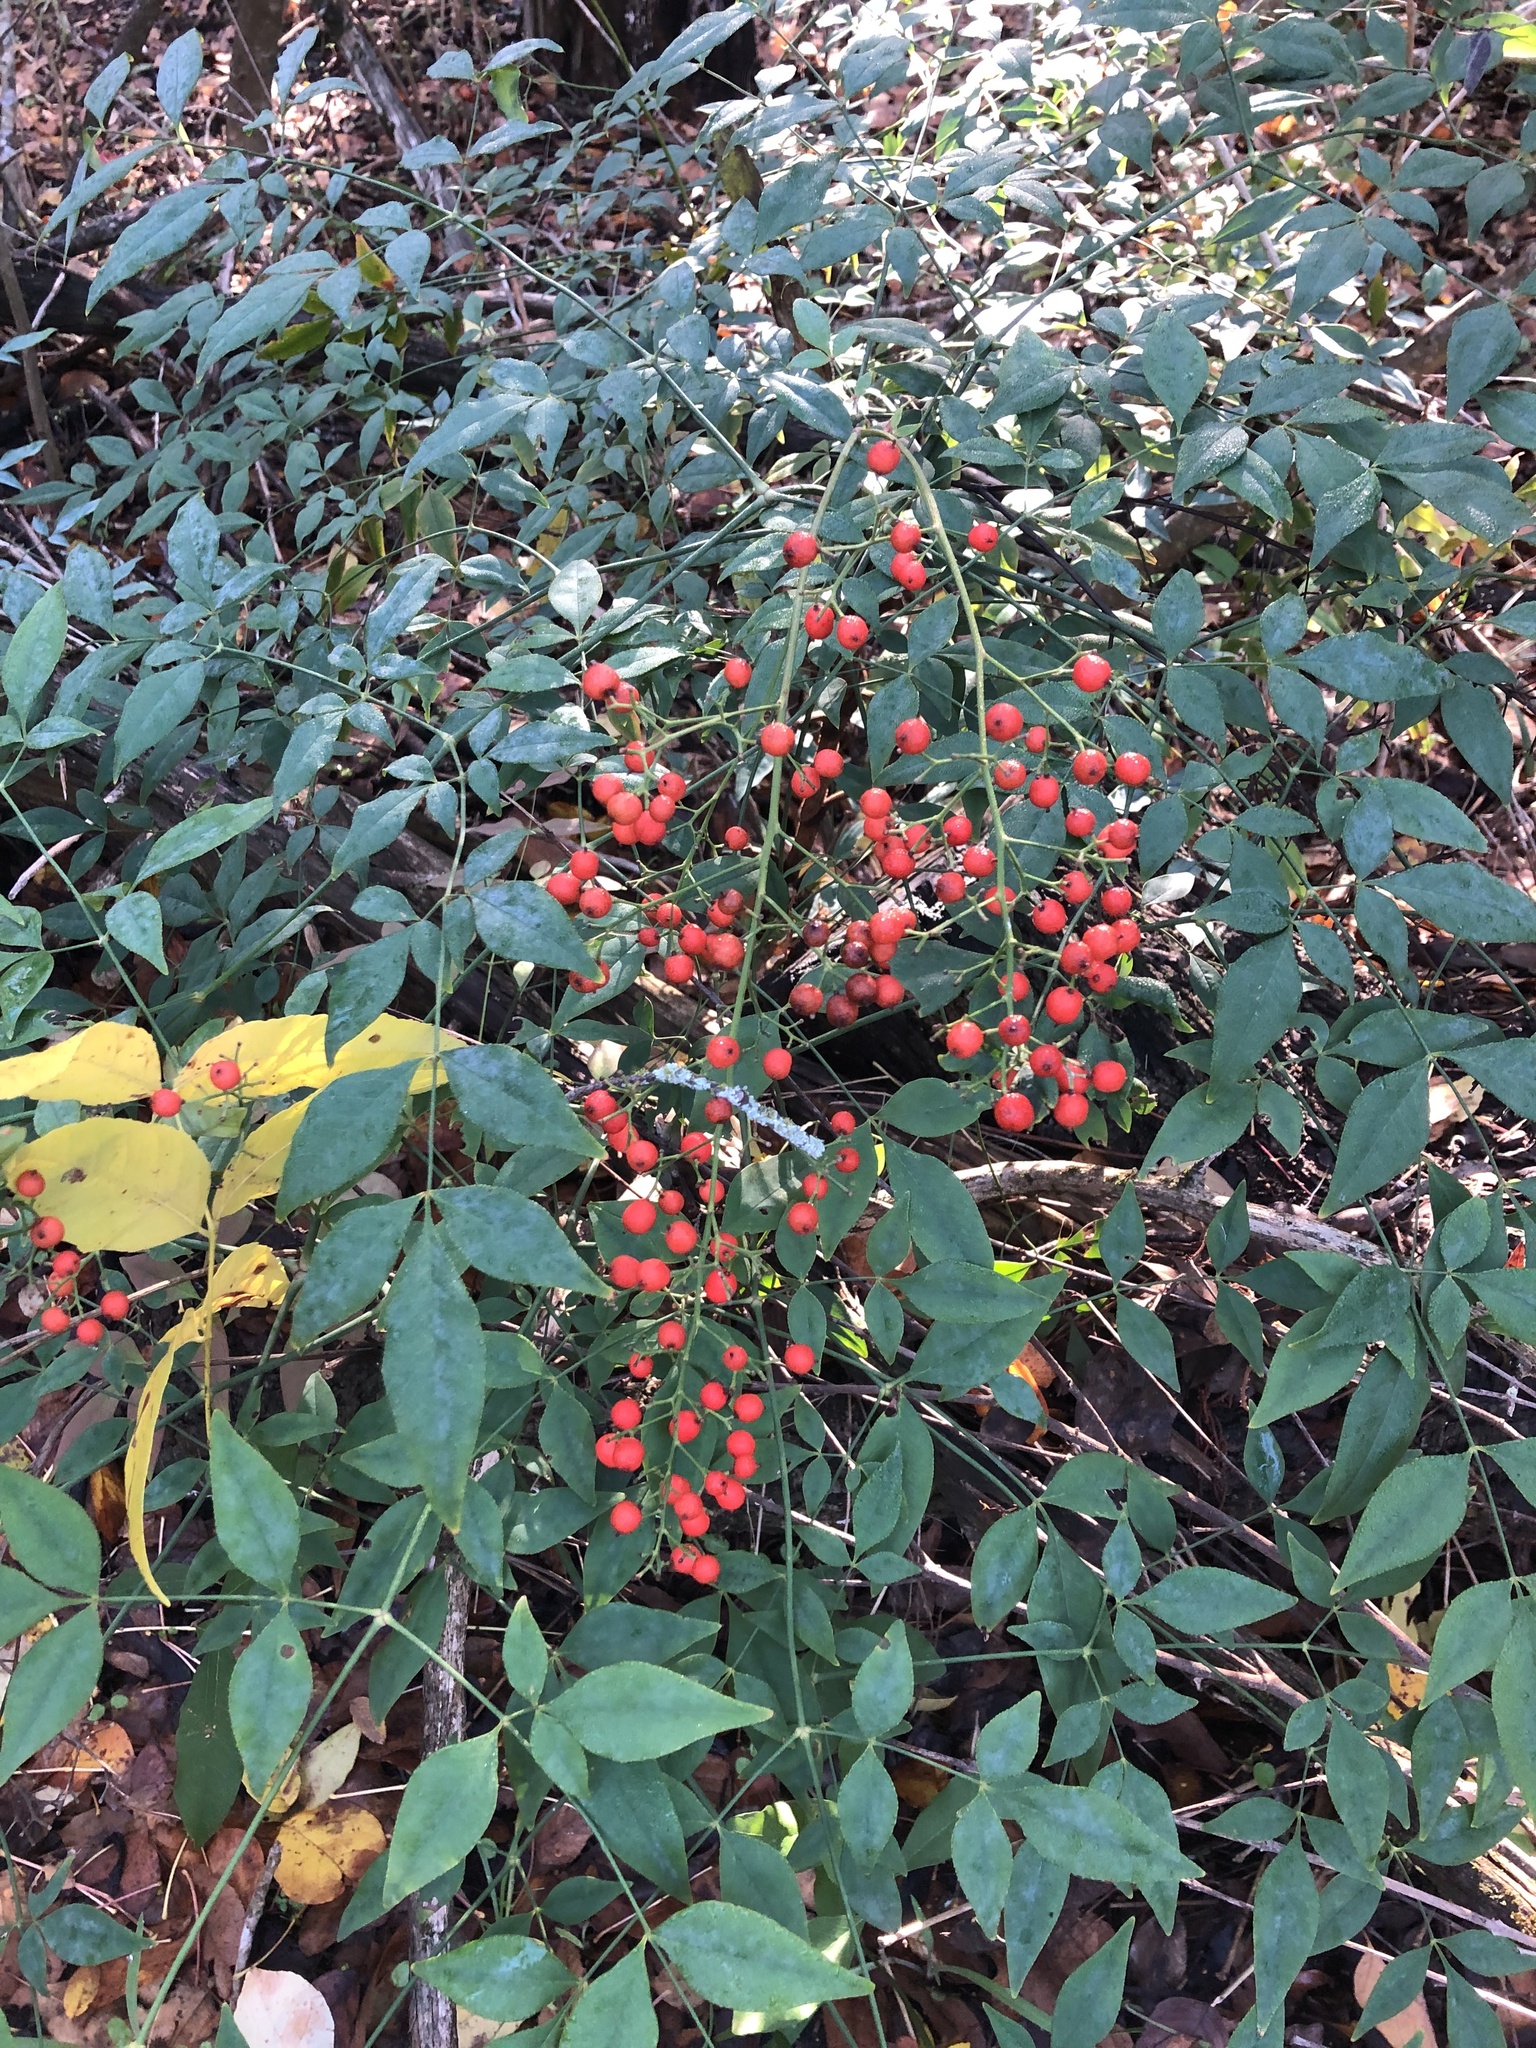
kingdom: Plantae
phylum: Tracheophyta
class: Magnoliopsida
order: Ranunculales
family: Berberidaceae
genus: Nandina
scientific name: Nandina domestica
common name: Sacred bamboo
